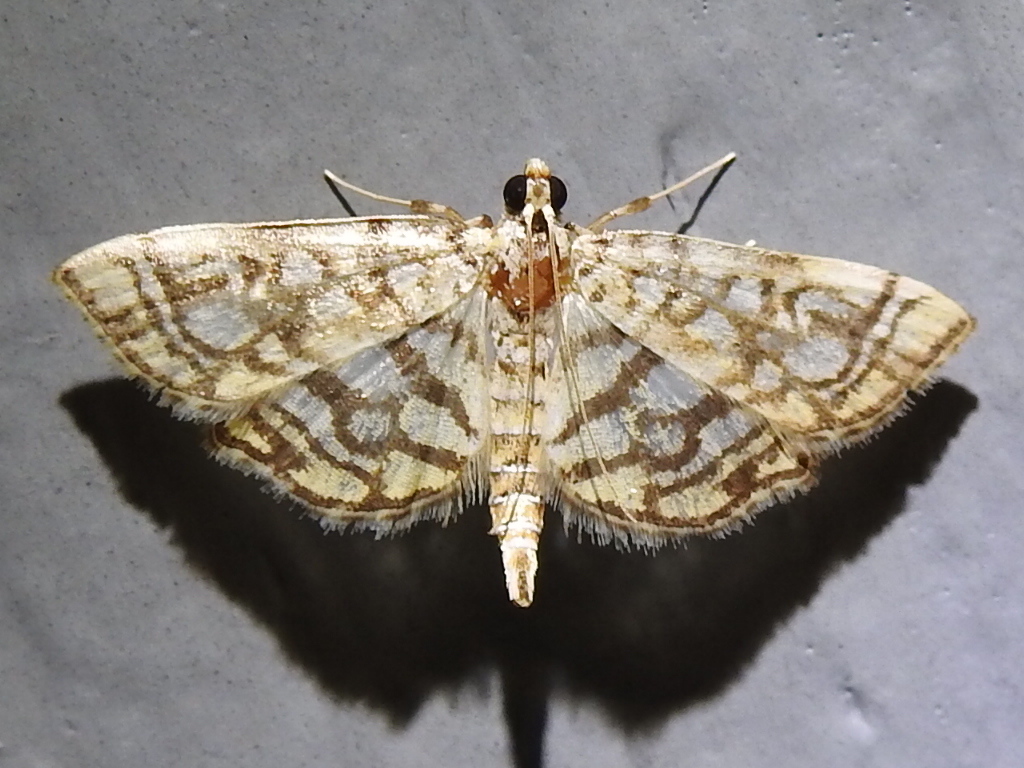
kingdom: Animalia
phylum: Arthropoda
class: Insecta
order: Lepidoptera
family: Crambidae
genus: Lygropia
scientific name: Lygropia rivulalis
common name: Bog lygropia moth
